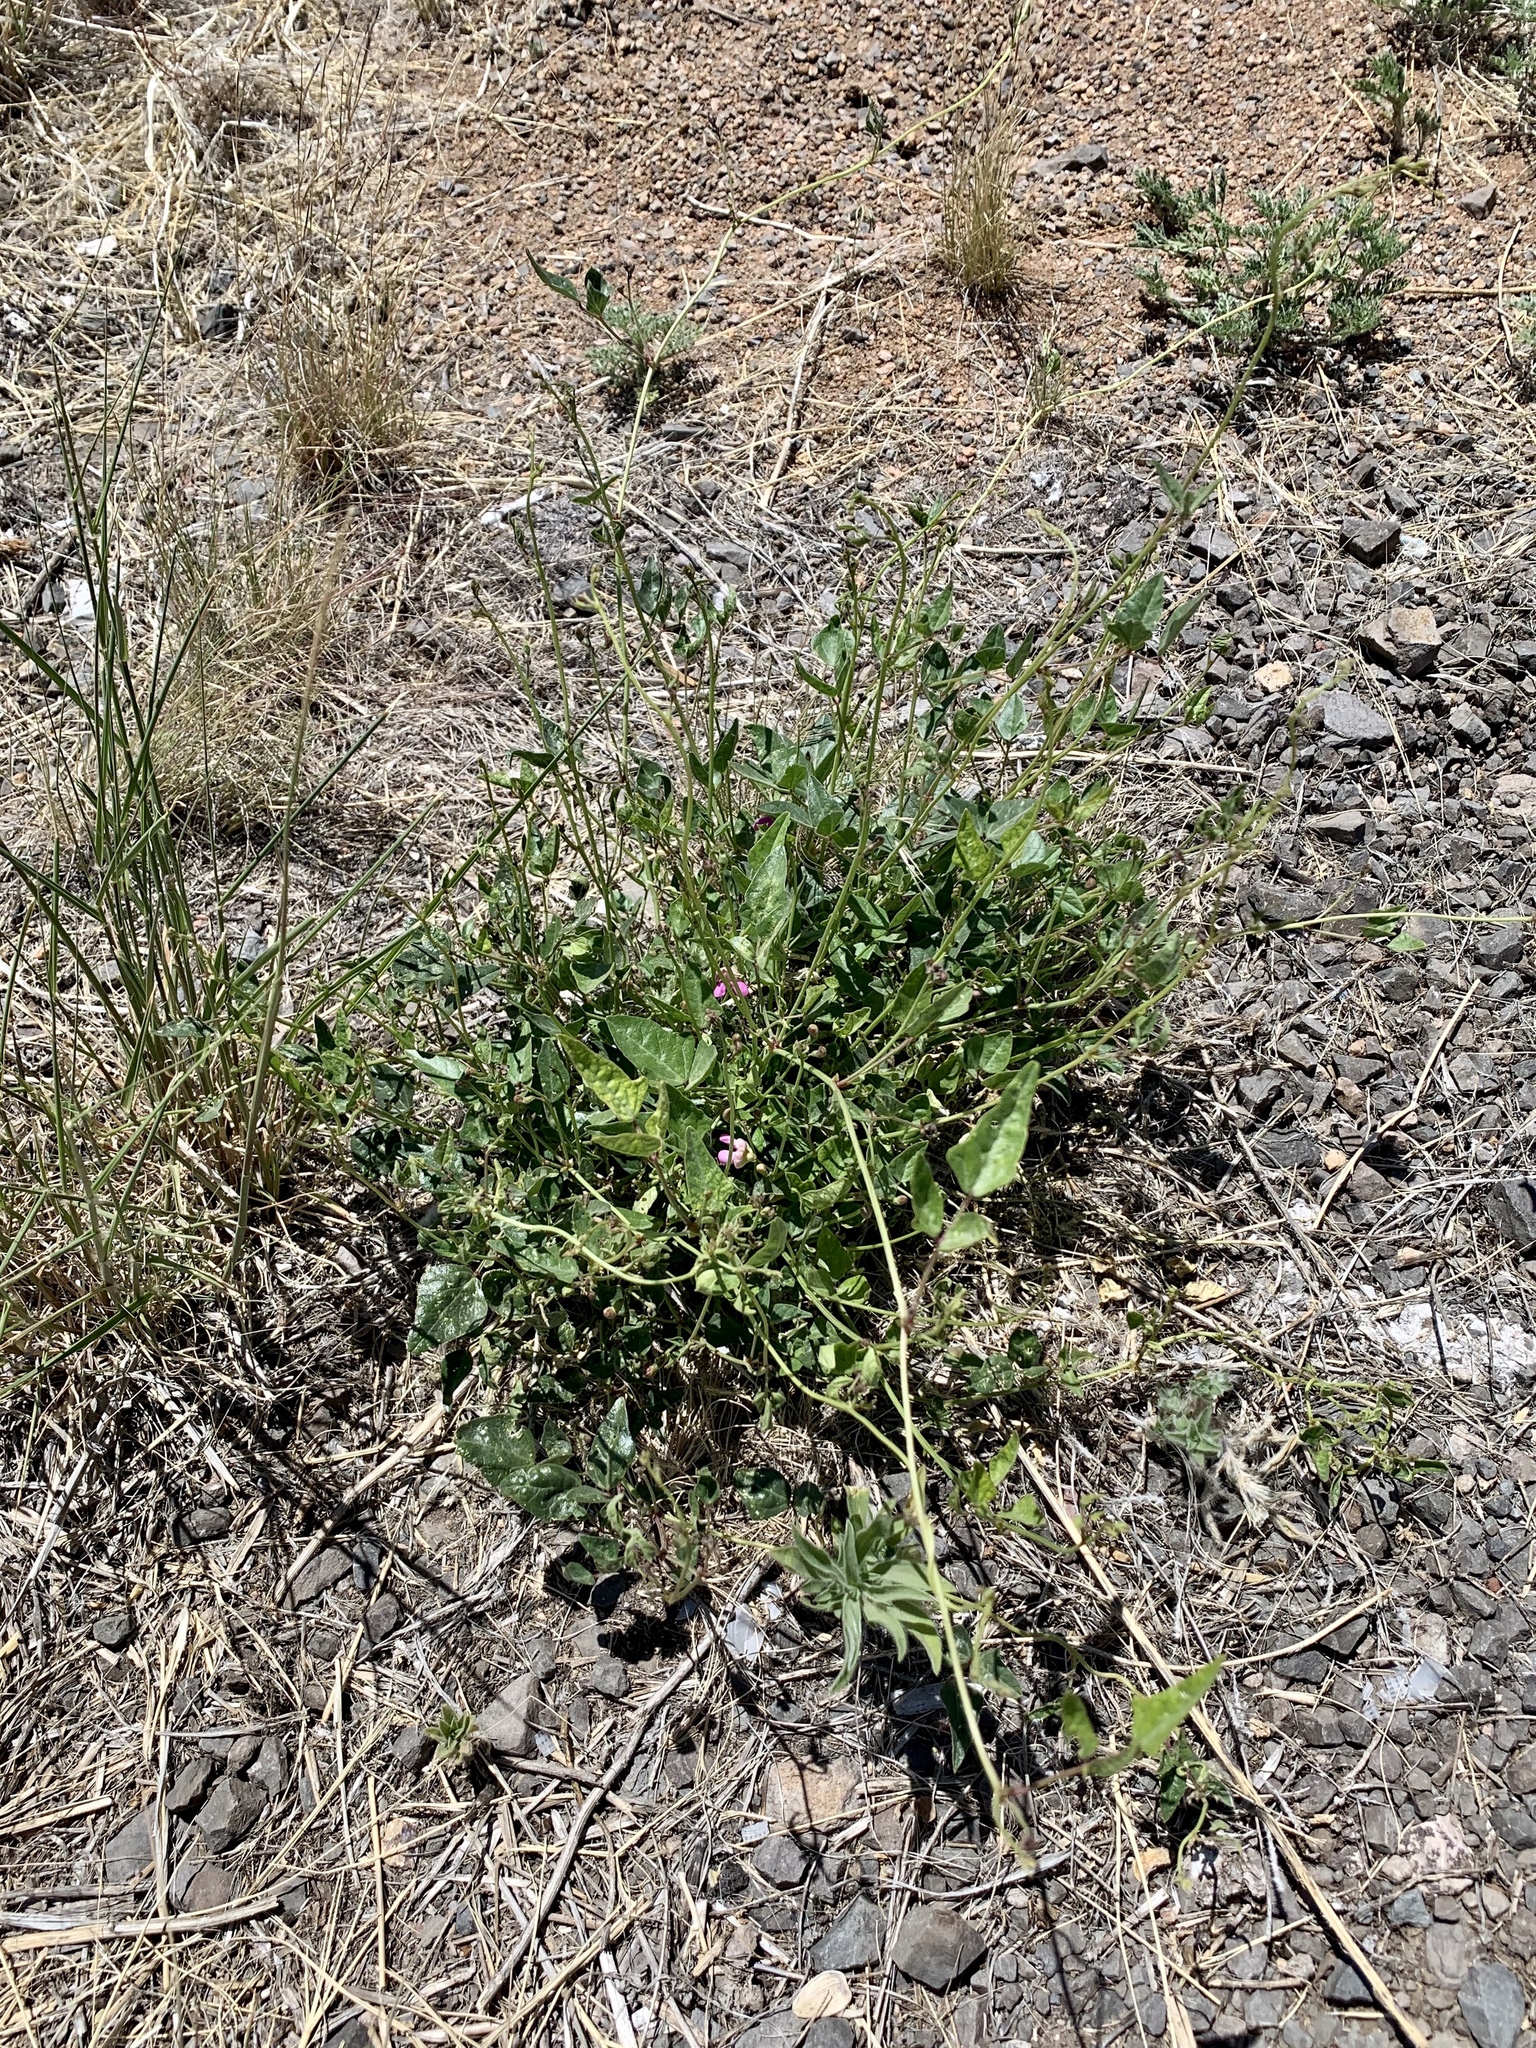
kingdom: Plantae
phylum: Tracheophyta
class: Magnoliopsida
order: Fabales
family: Fabaceae
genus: Phaseolus
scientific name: Phaseolus angustissimus
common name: Slimleaf bean
